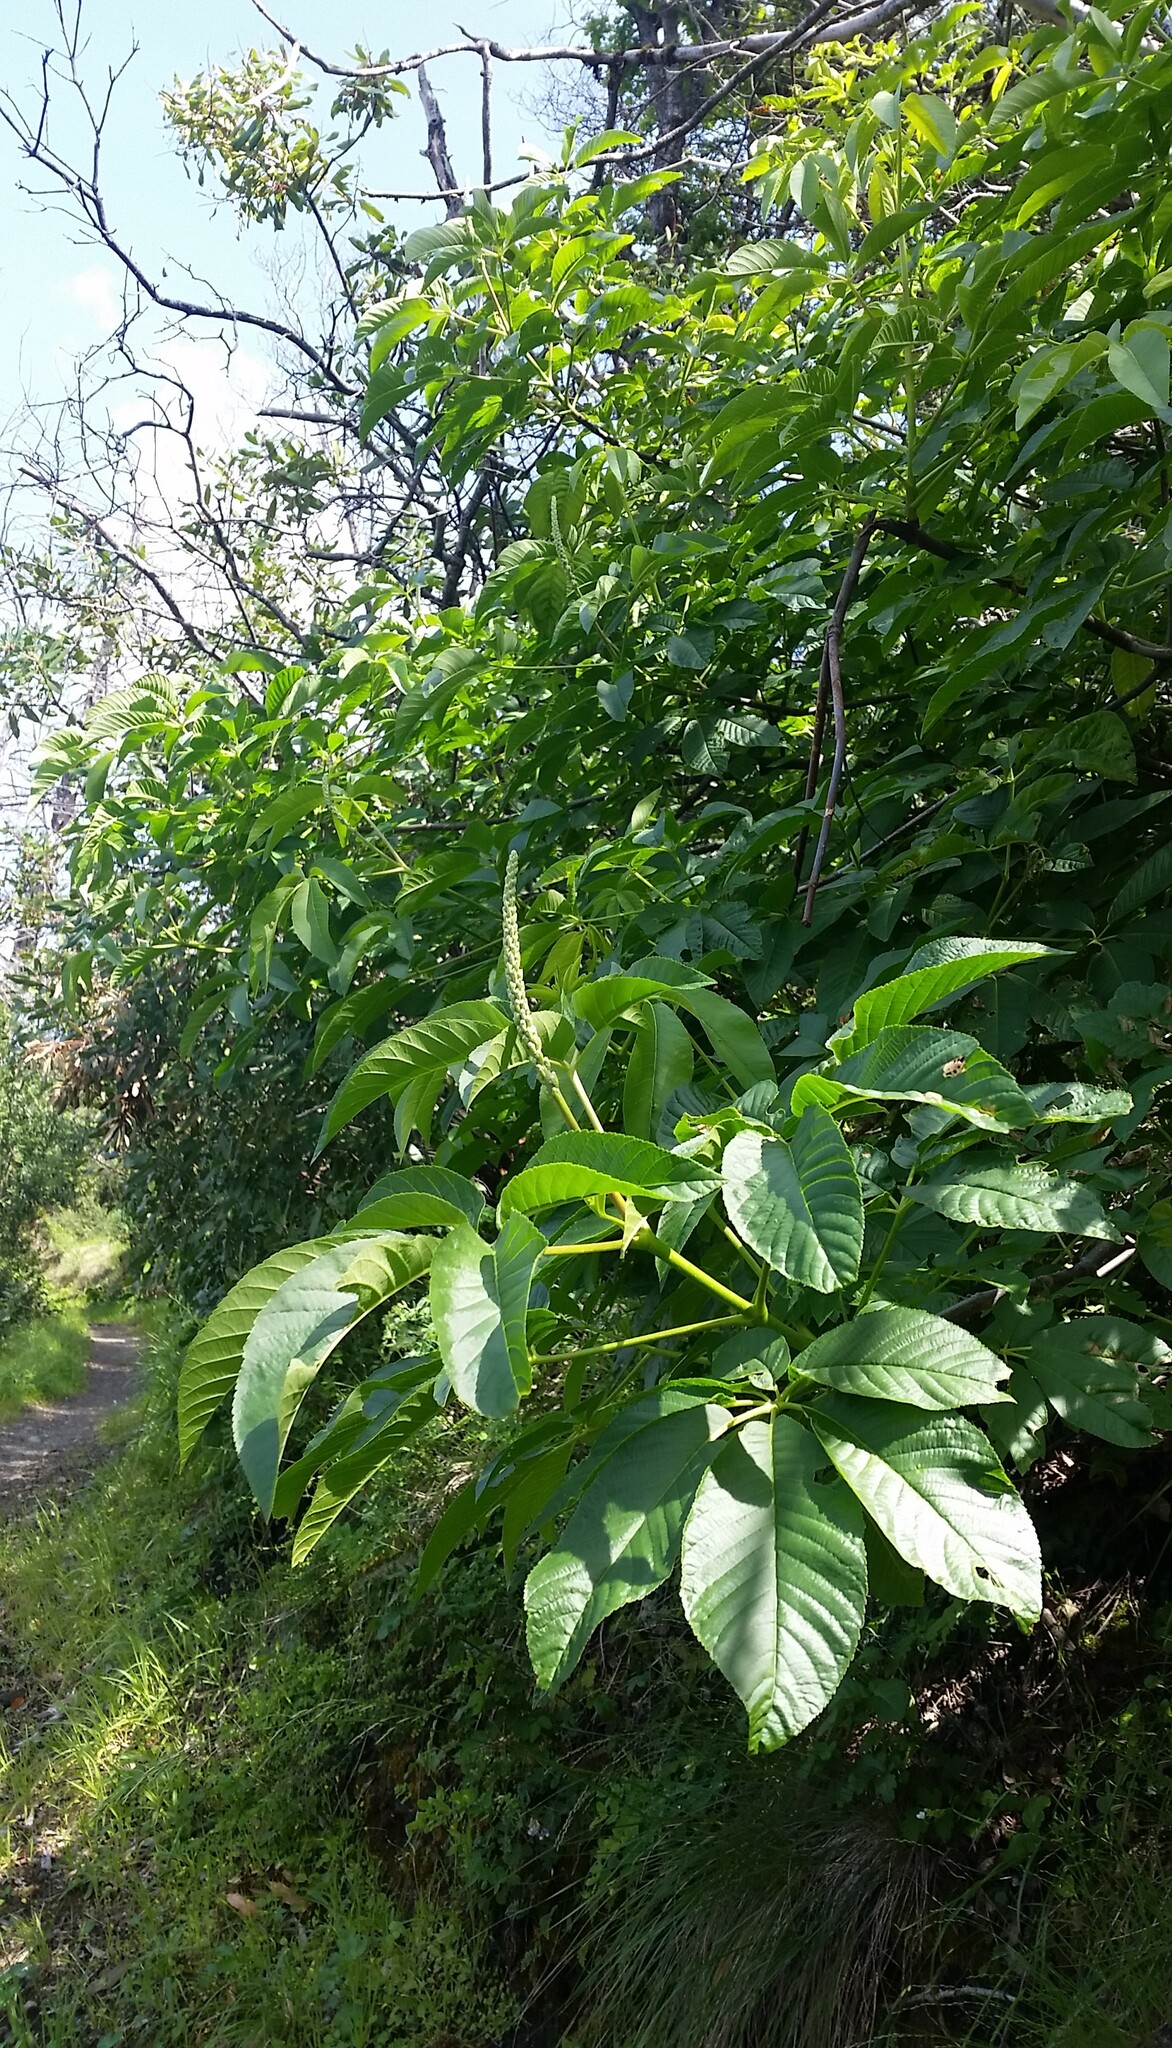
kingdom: Plantae
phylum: Tracheophyta
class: Magnoliopsida
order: Sapindales
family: Sapindaceae
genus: Aesculus
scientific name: Aesculus californica
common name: California buckeye
